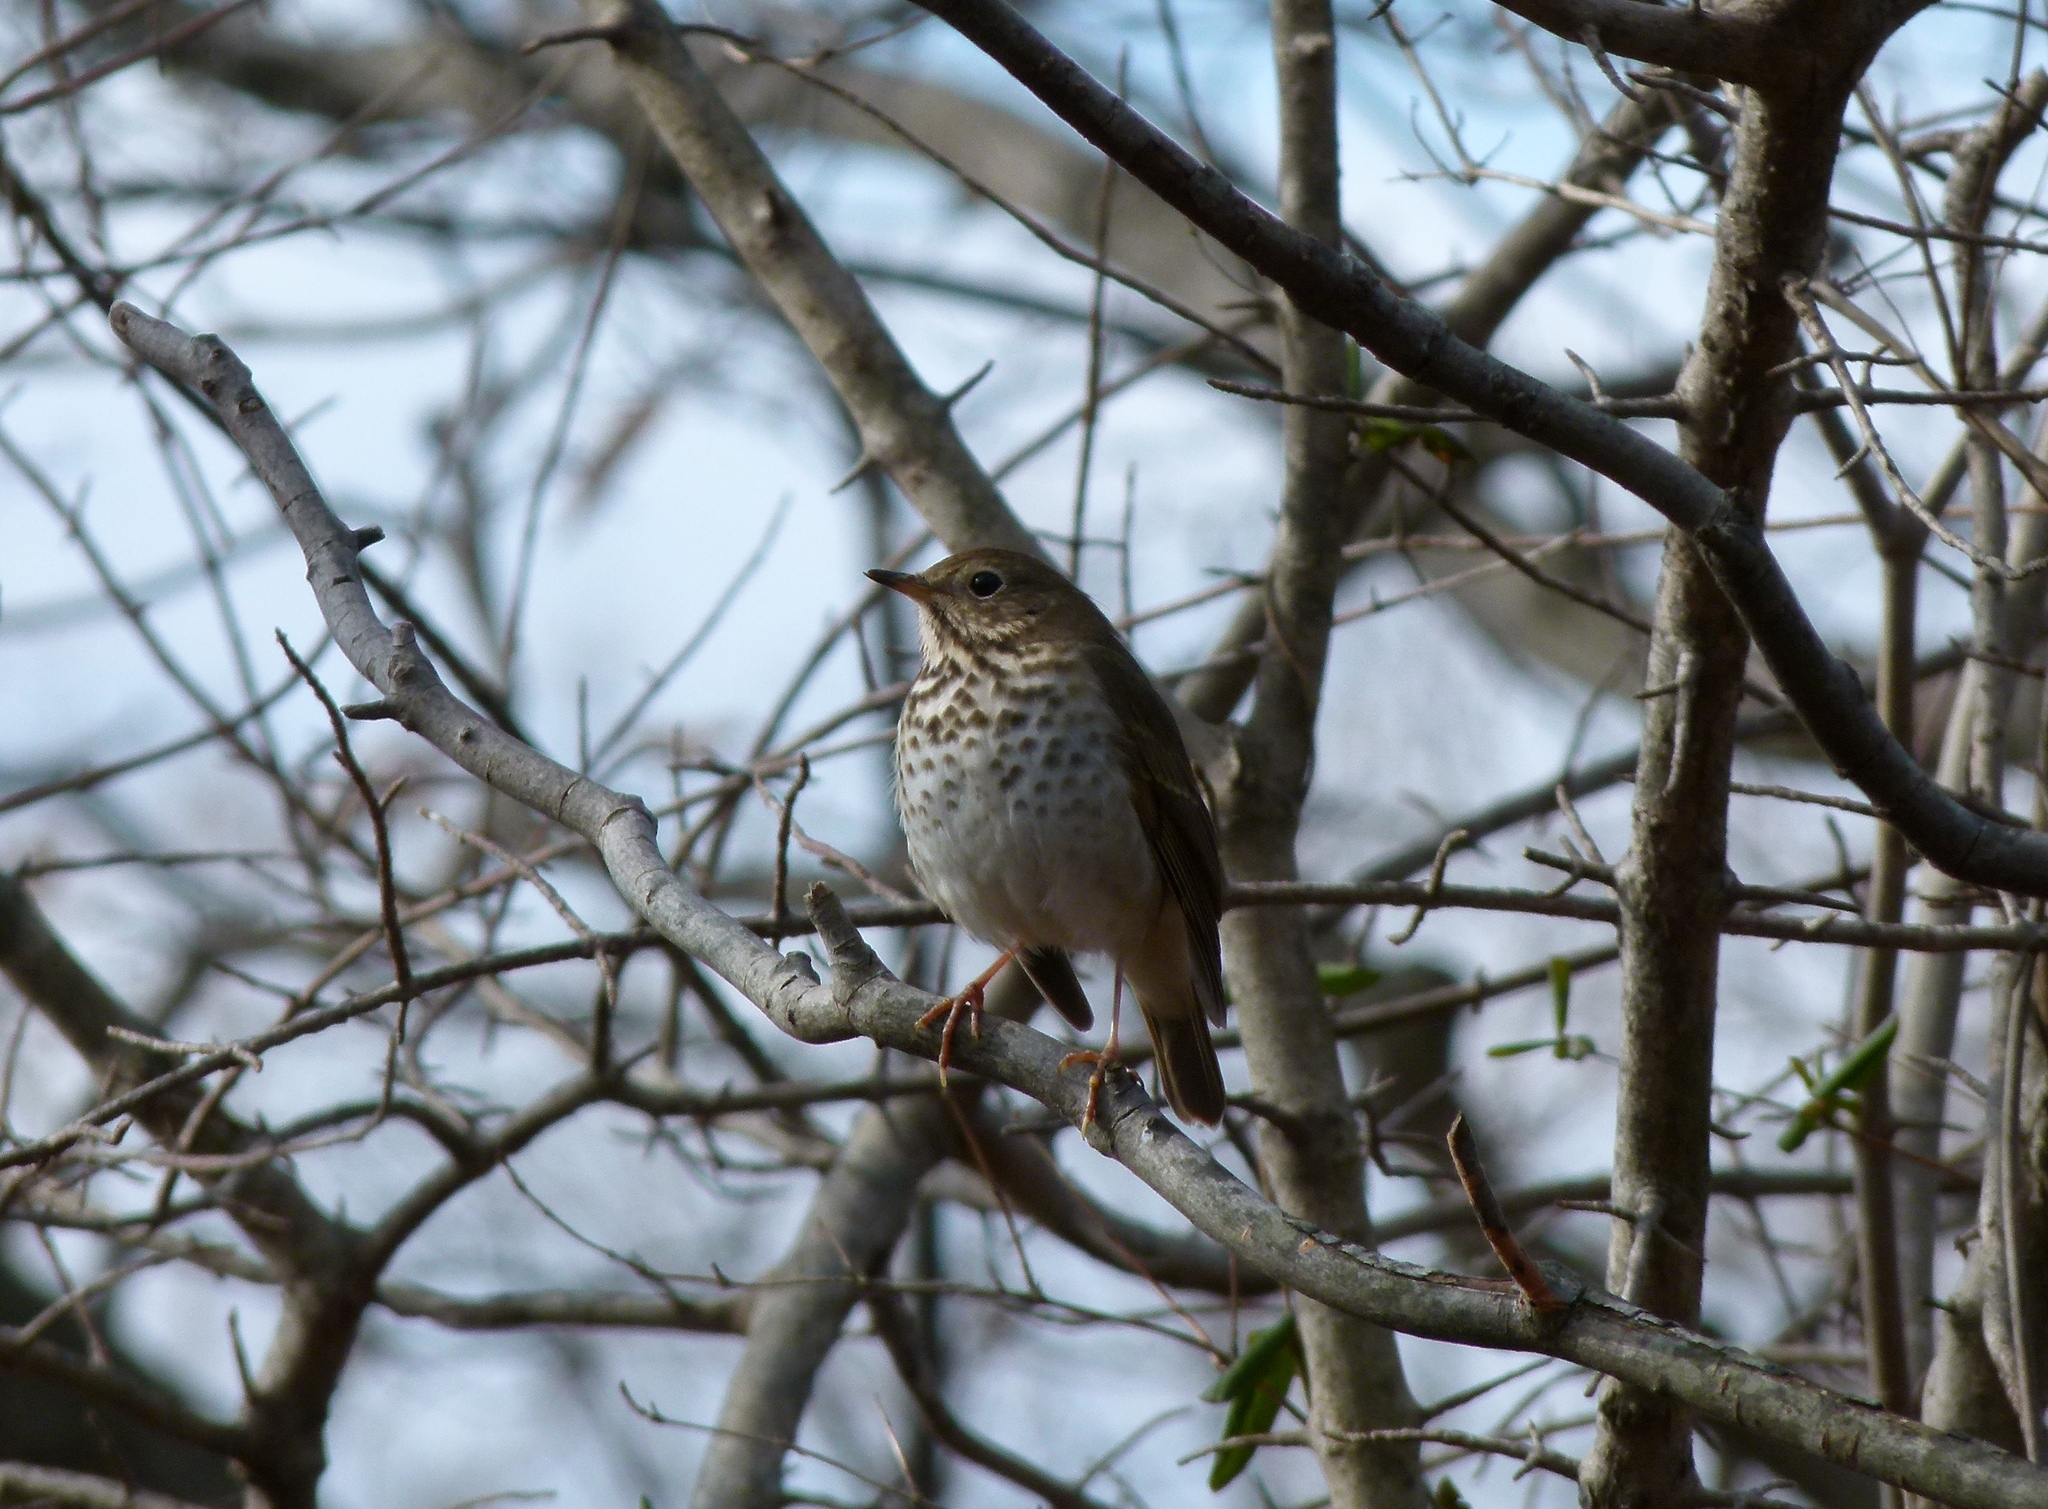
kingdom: Animalia
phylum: Chordata
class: Aves
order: Passeriformes
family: Turdidae
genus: Catharus
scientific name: Catharus guttatus
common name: Hermit thrush
